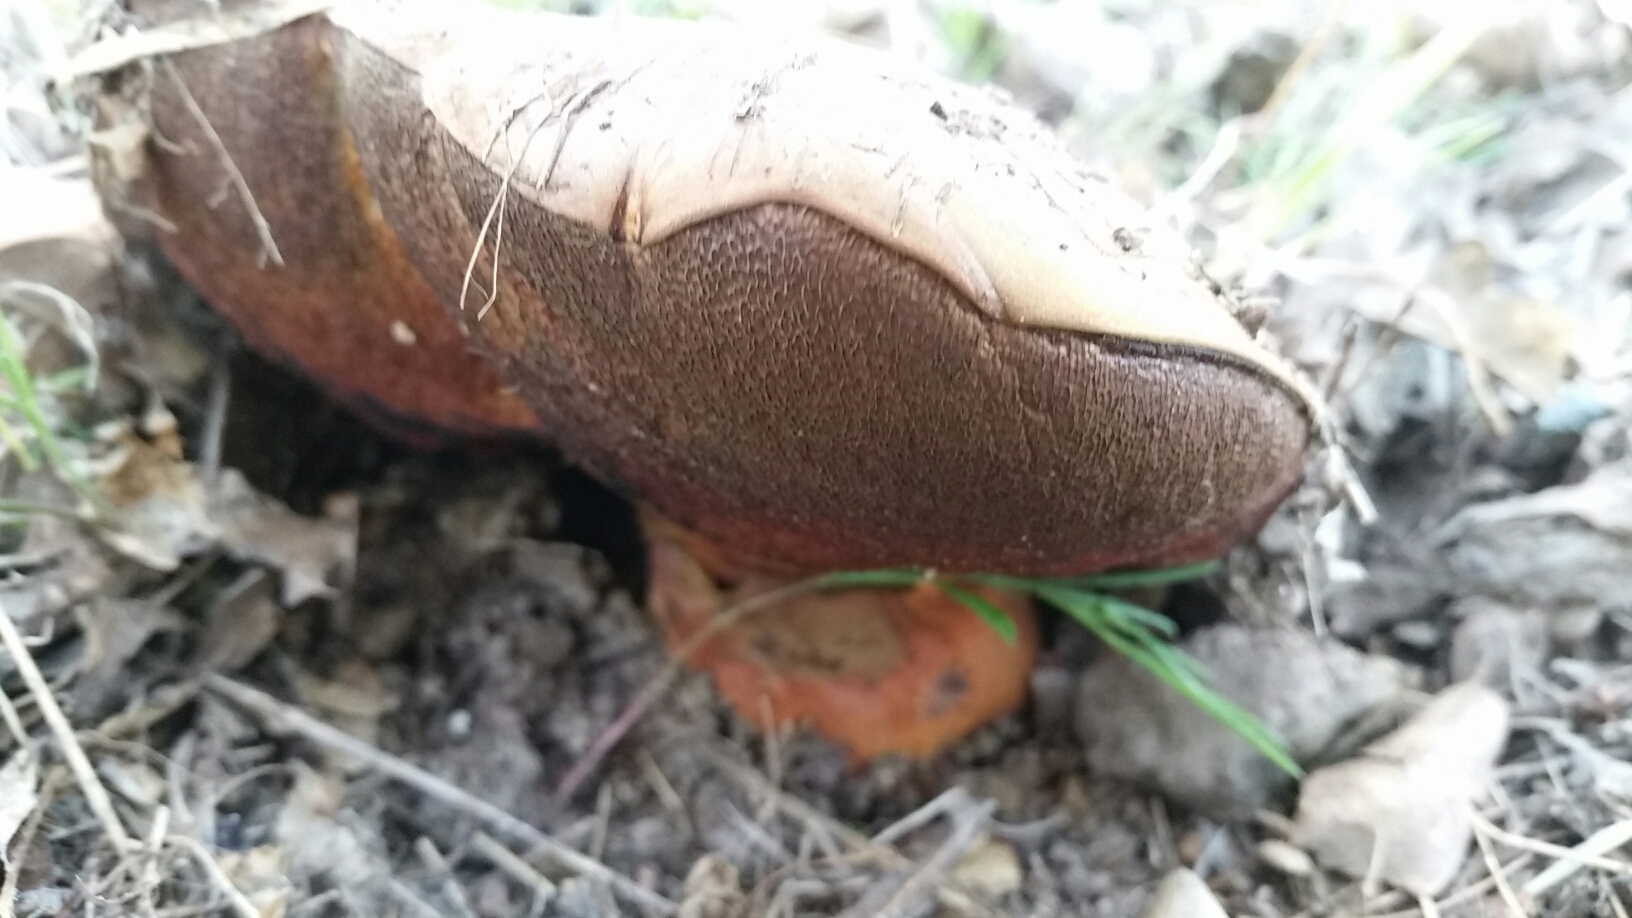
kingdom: Fungi
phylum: Basidiomycota
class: Agaricomycetes
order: Boletales
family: Boletaceae
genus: Suillellus
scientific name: Suillellus amygdalinus
